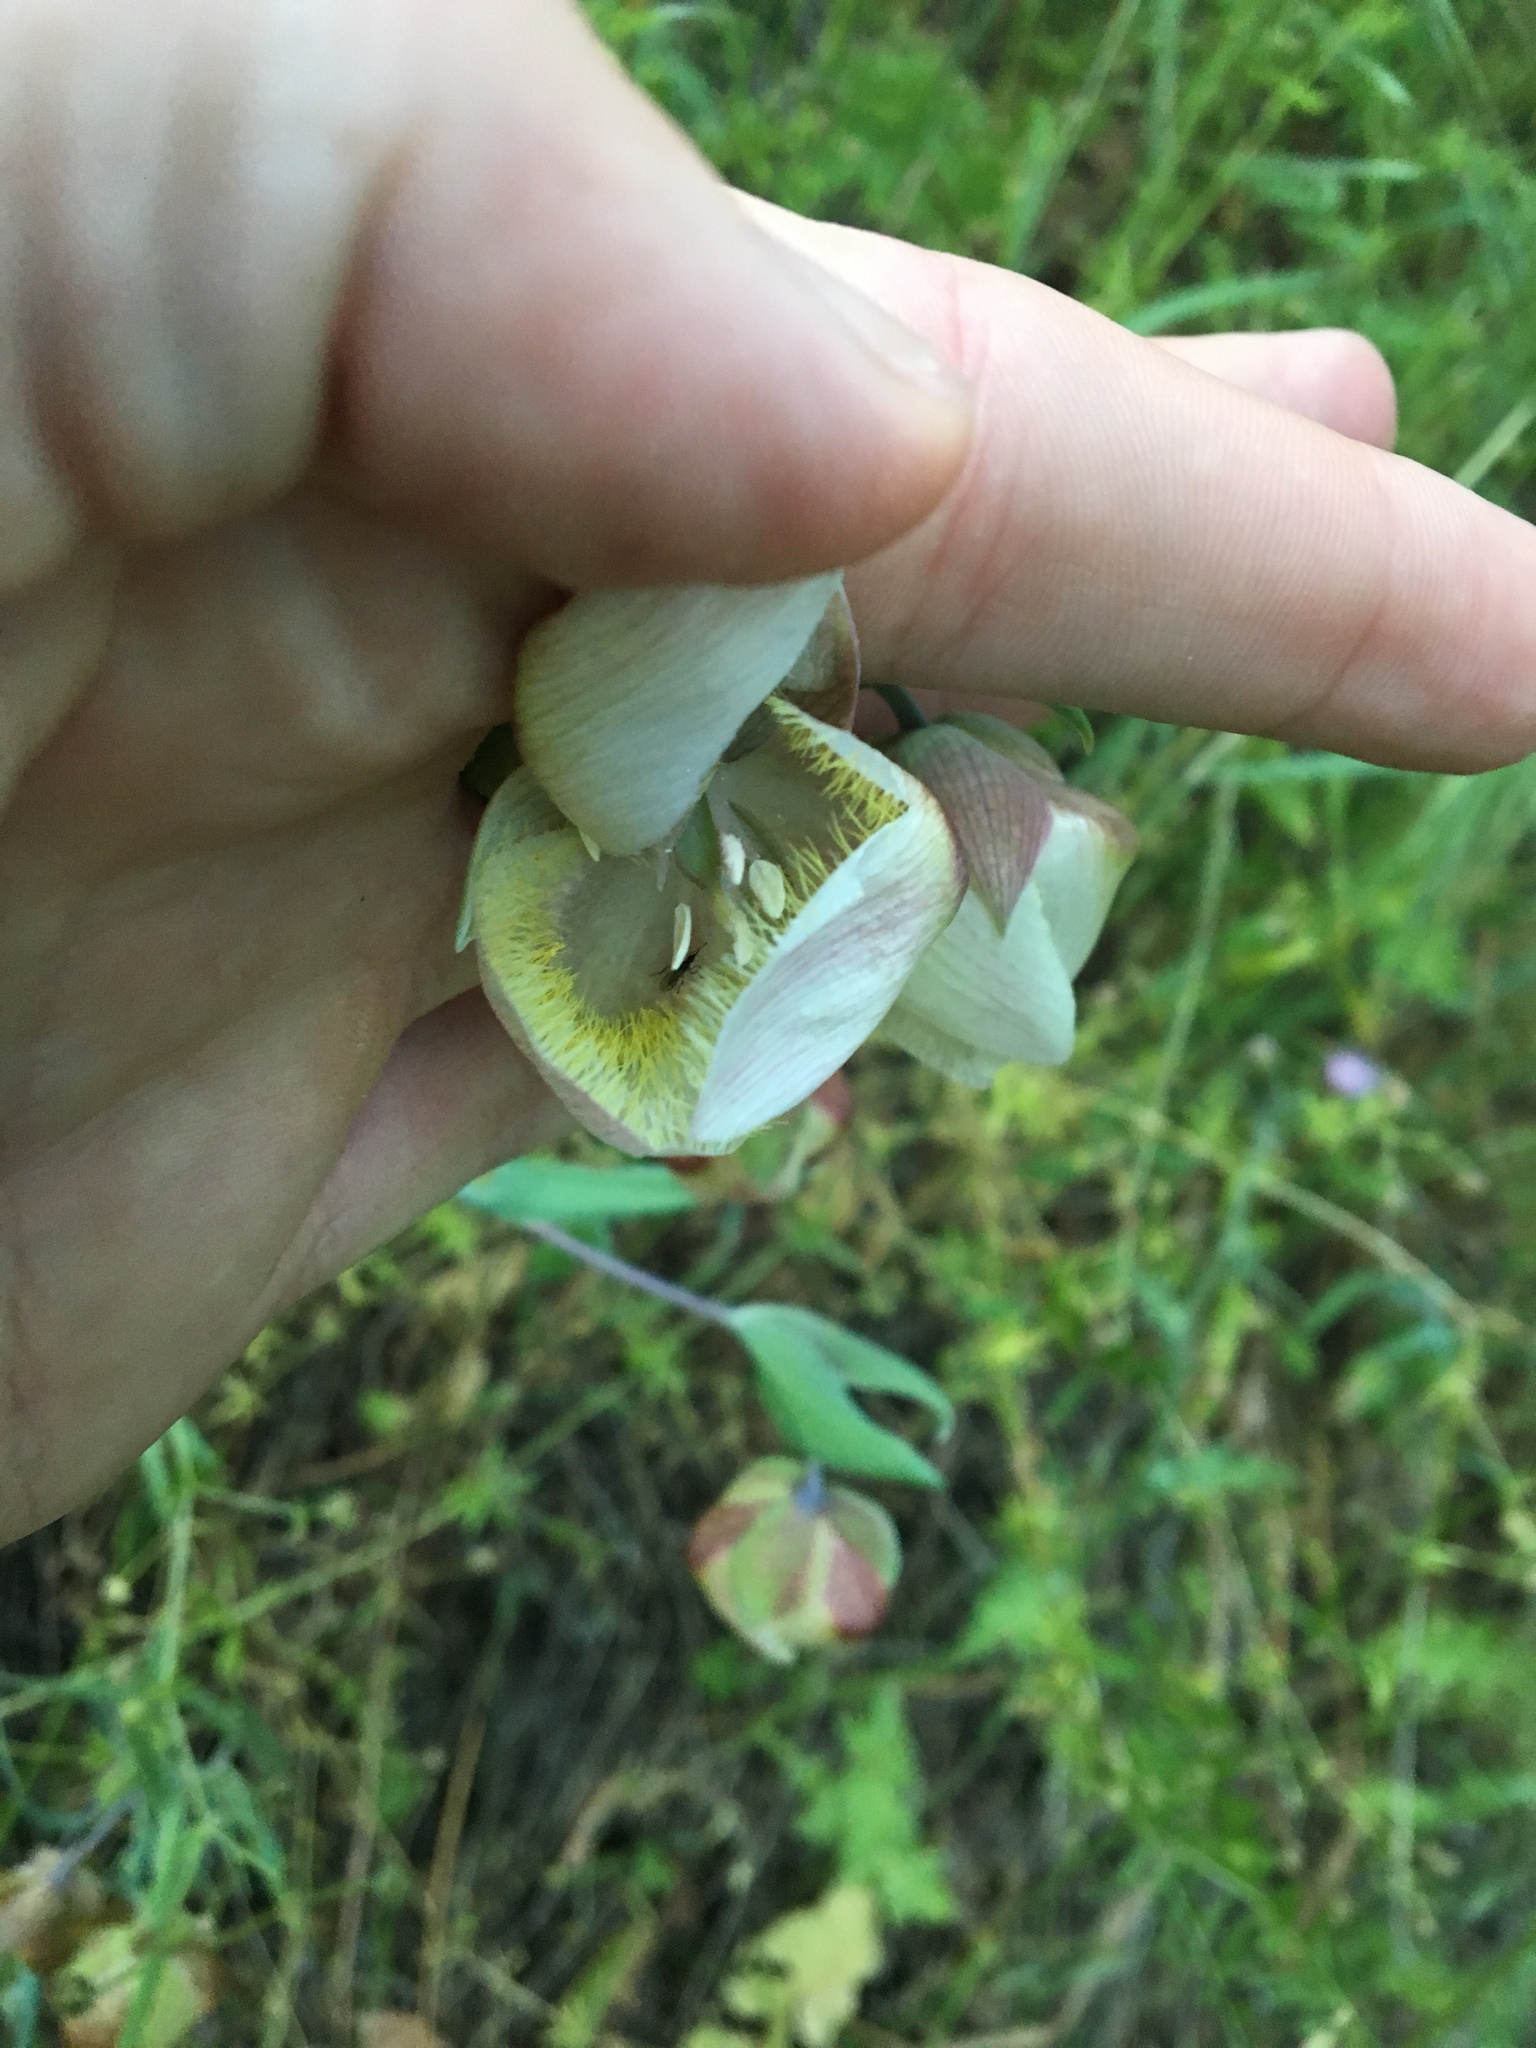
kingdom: Plantae
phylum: Tracheophyta
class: Liliopsida
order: Liliales
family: Liliaceae
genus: Calochortus
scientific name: Calochortus albus
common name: Fairy-lantern
